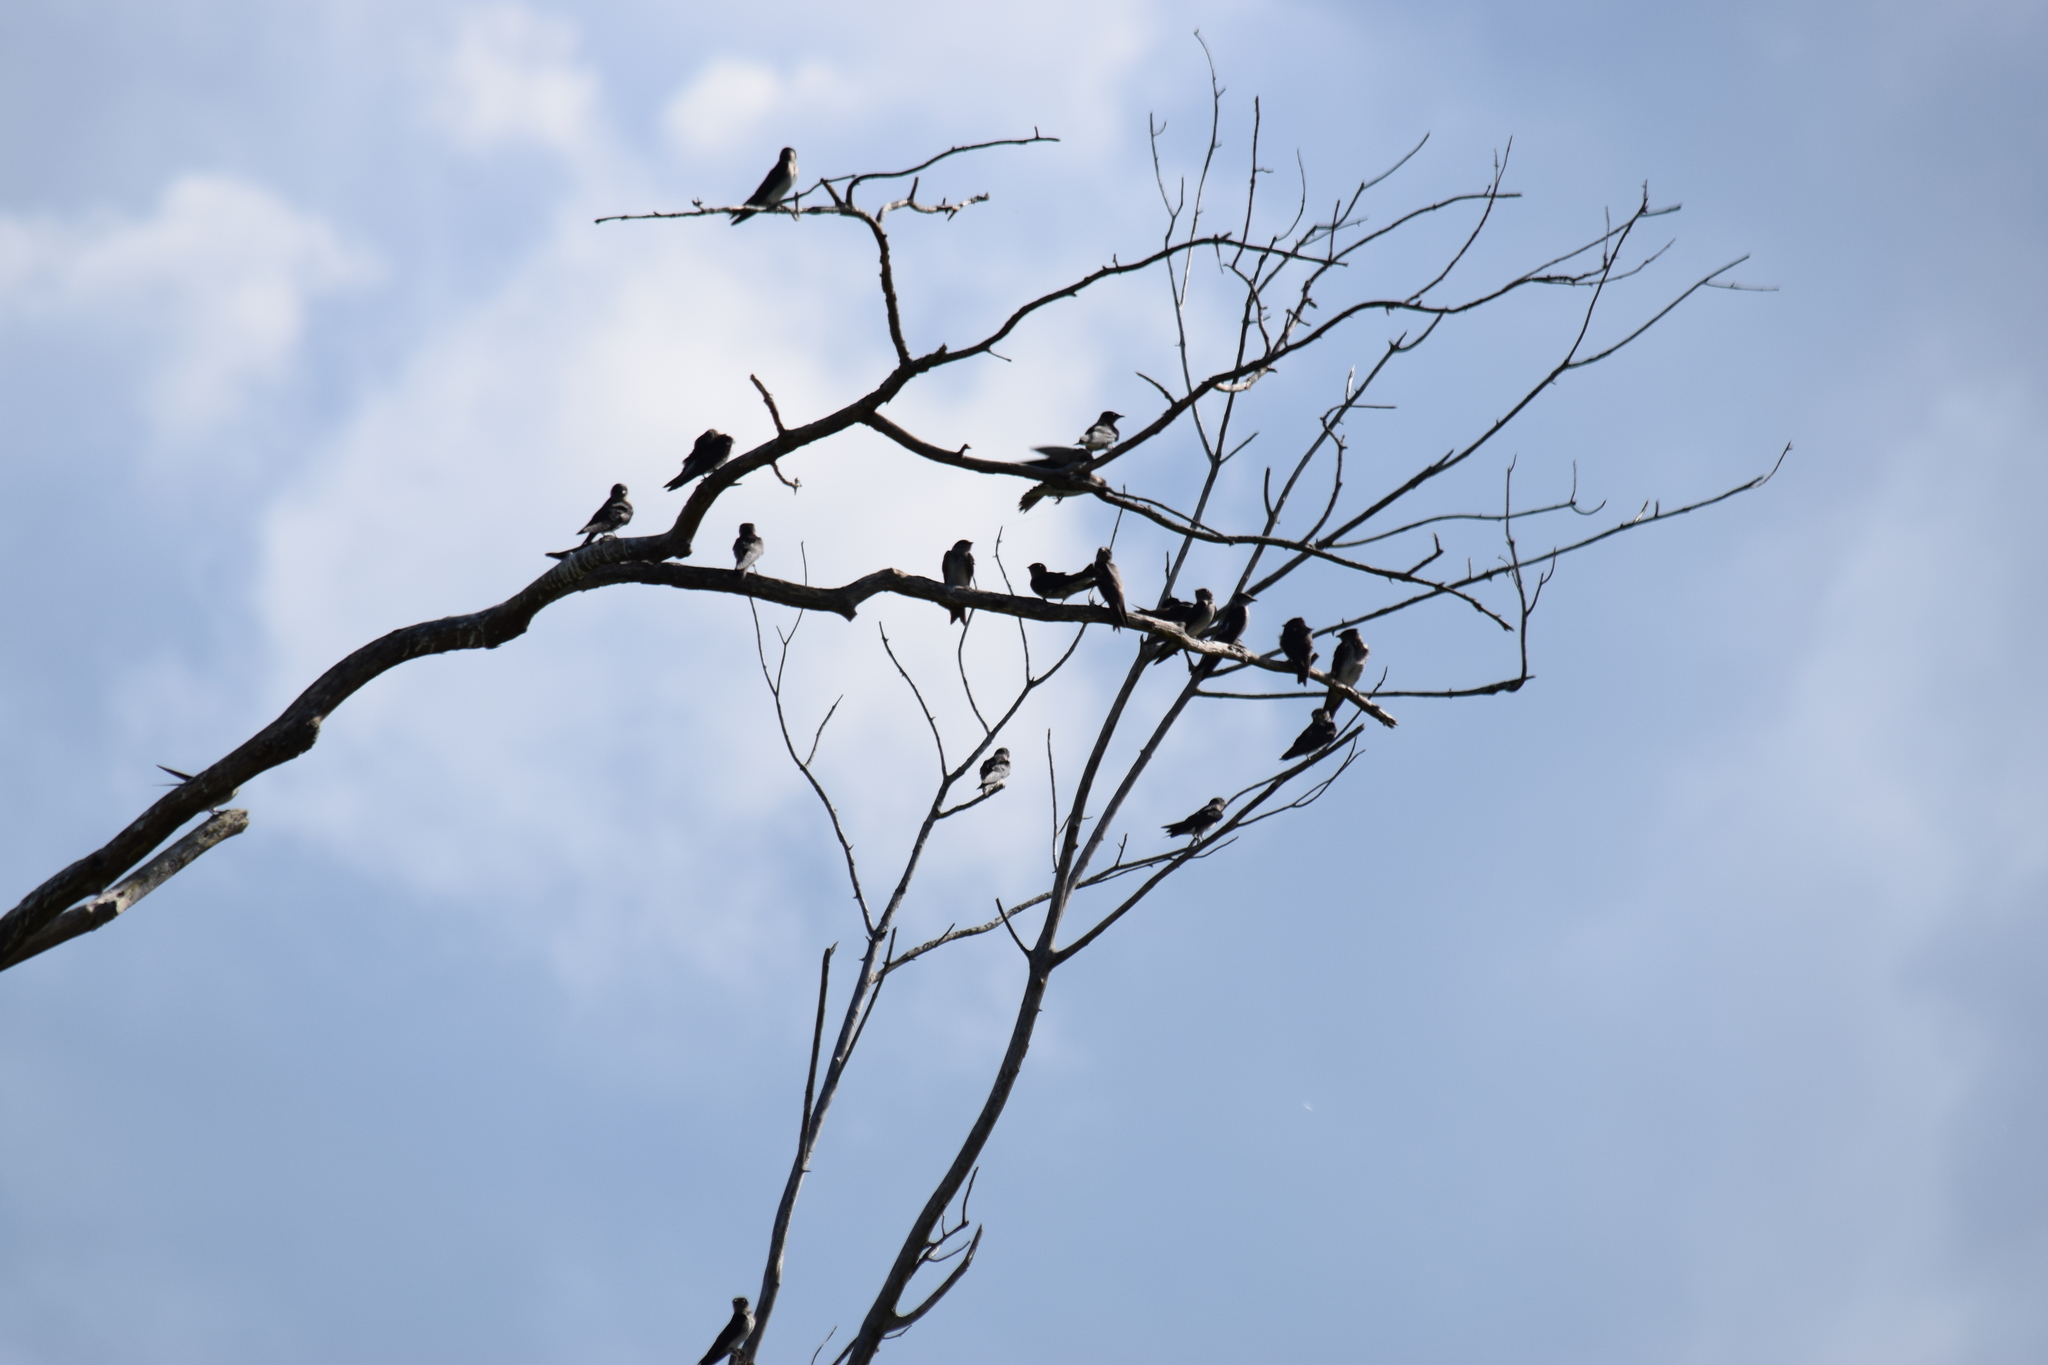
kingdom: Animalia
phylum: Chordata
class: Aves
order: Passeriformes
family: Hirundinidae
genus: Progne
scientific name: Progne subis
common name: Purple martin
